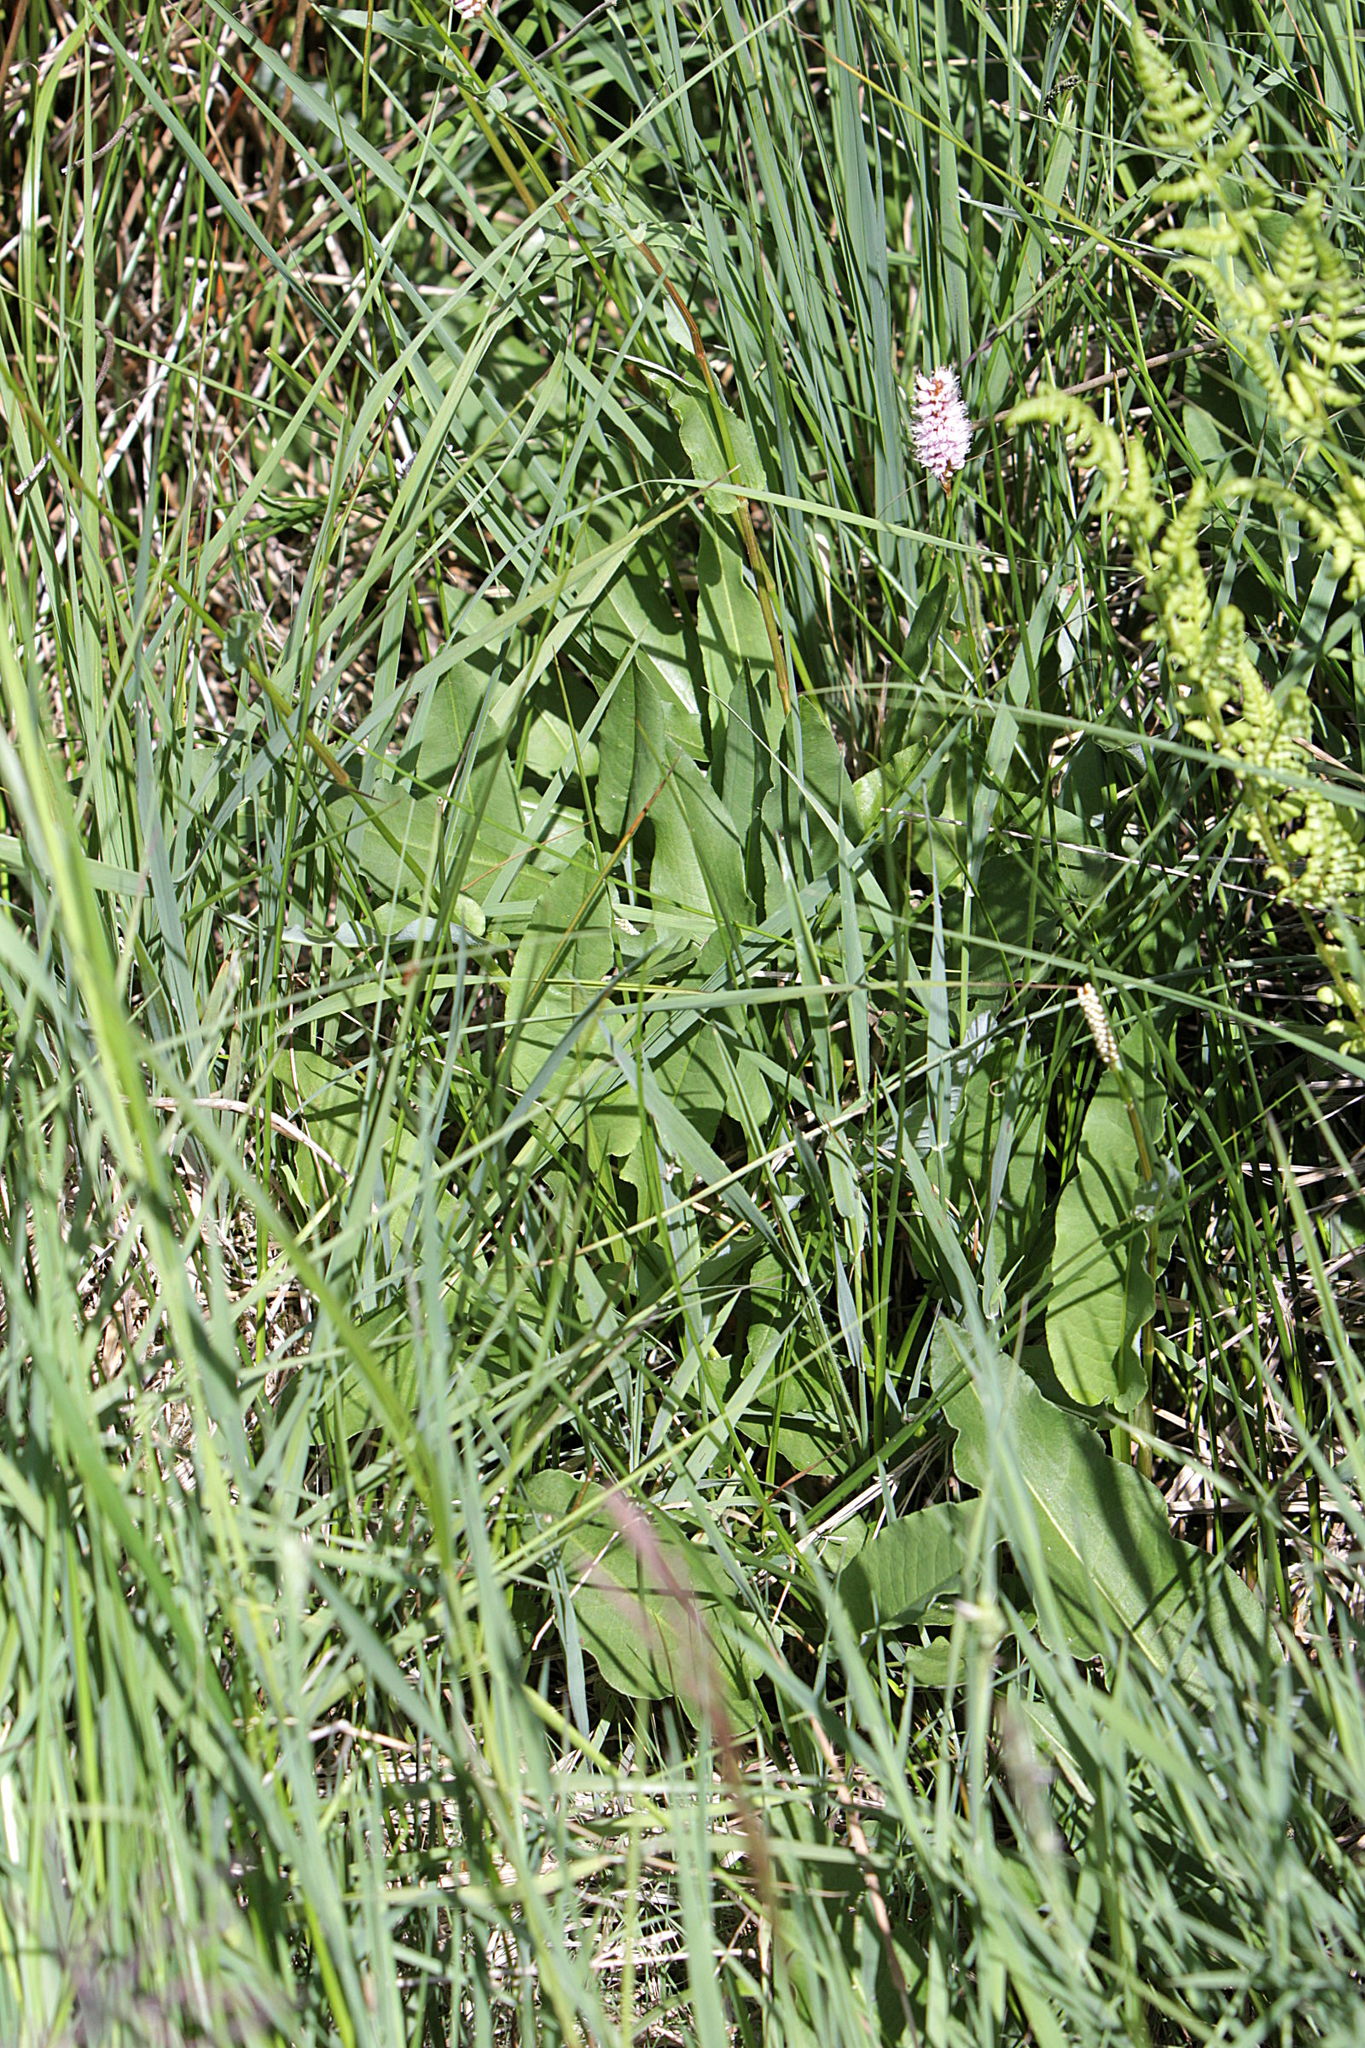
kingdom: Plantae
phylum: Tracheophyta
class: Magnoliopsida
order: Caryophyllales
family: Polygonaceae
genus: Bistorta
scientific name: Bistorta officinalis
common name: Common bistort
